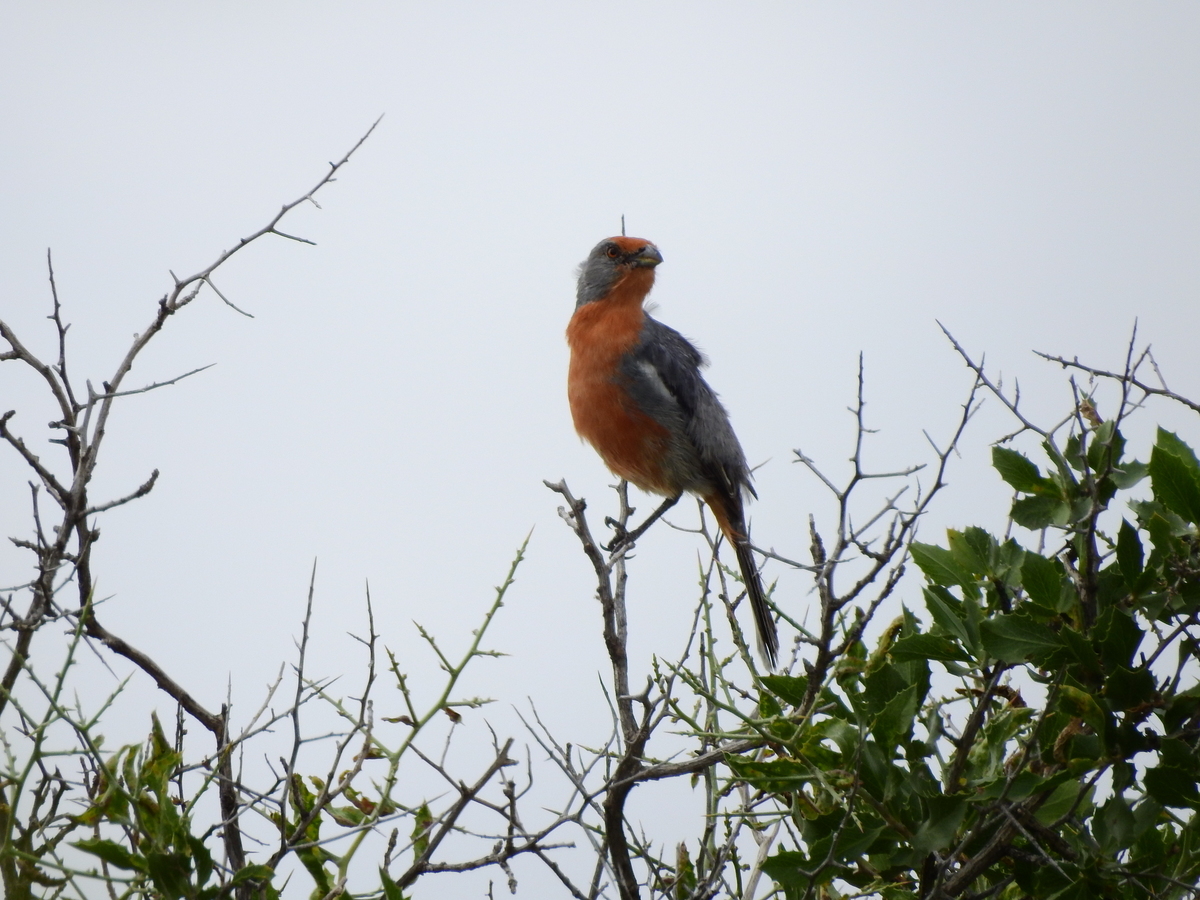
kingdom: Animalia
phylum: Chordata
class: Aves
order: Passeriformes
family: Cotingidae
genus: Phytotoma
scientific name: Phytotoma rutila
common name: White-tipped plantcutter
